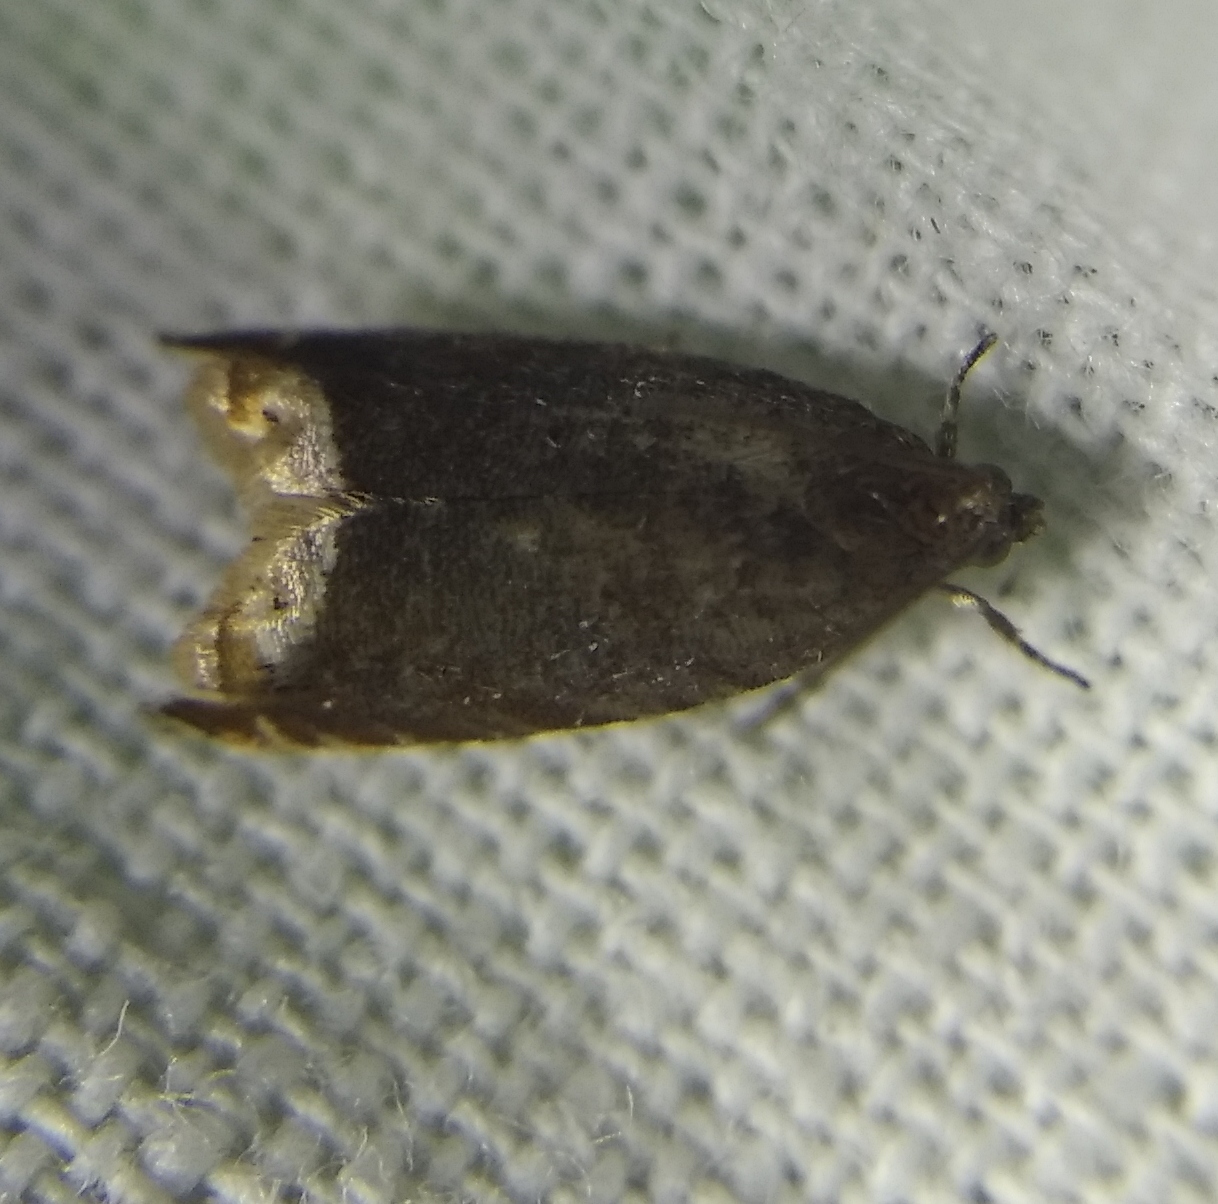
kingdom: Animalia
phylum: Arthropoda
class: Insecta
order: Lepidoptera
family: Tortricidae
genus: Ancylis
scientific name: Ancylis selenana
